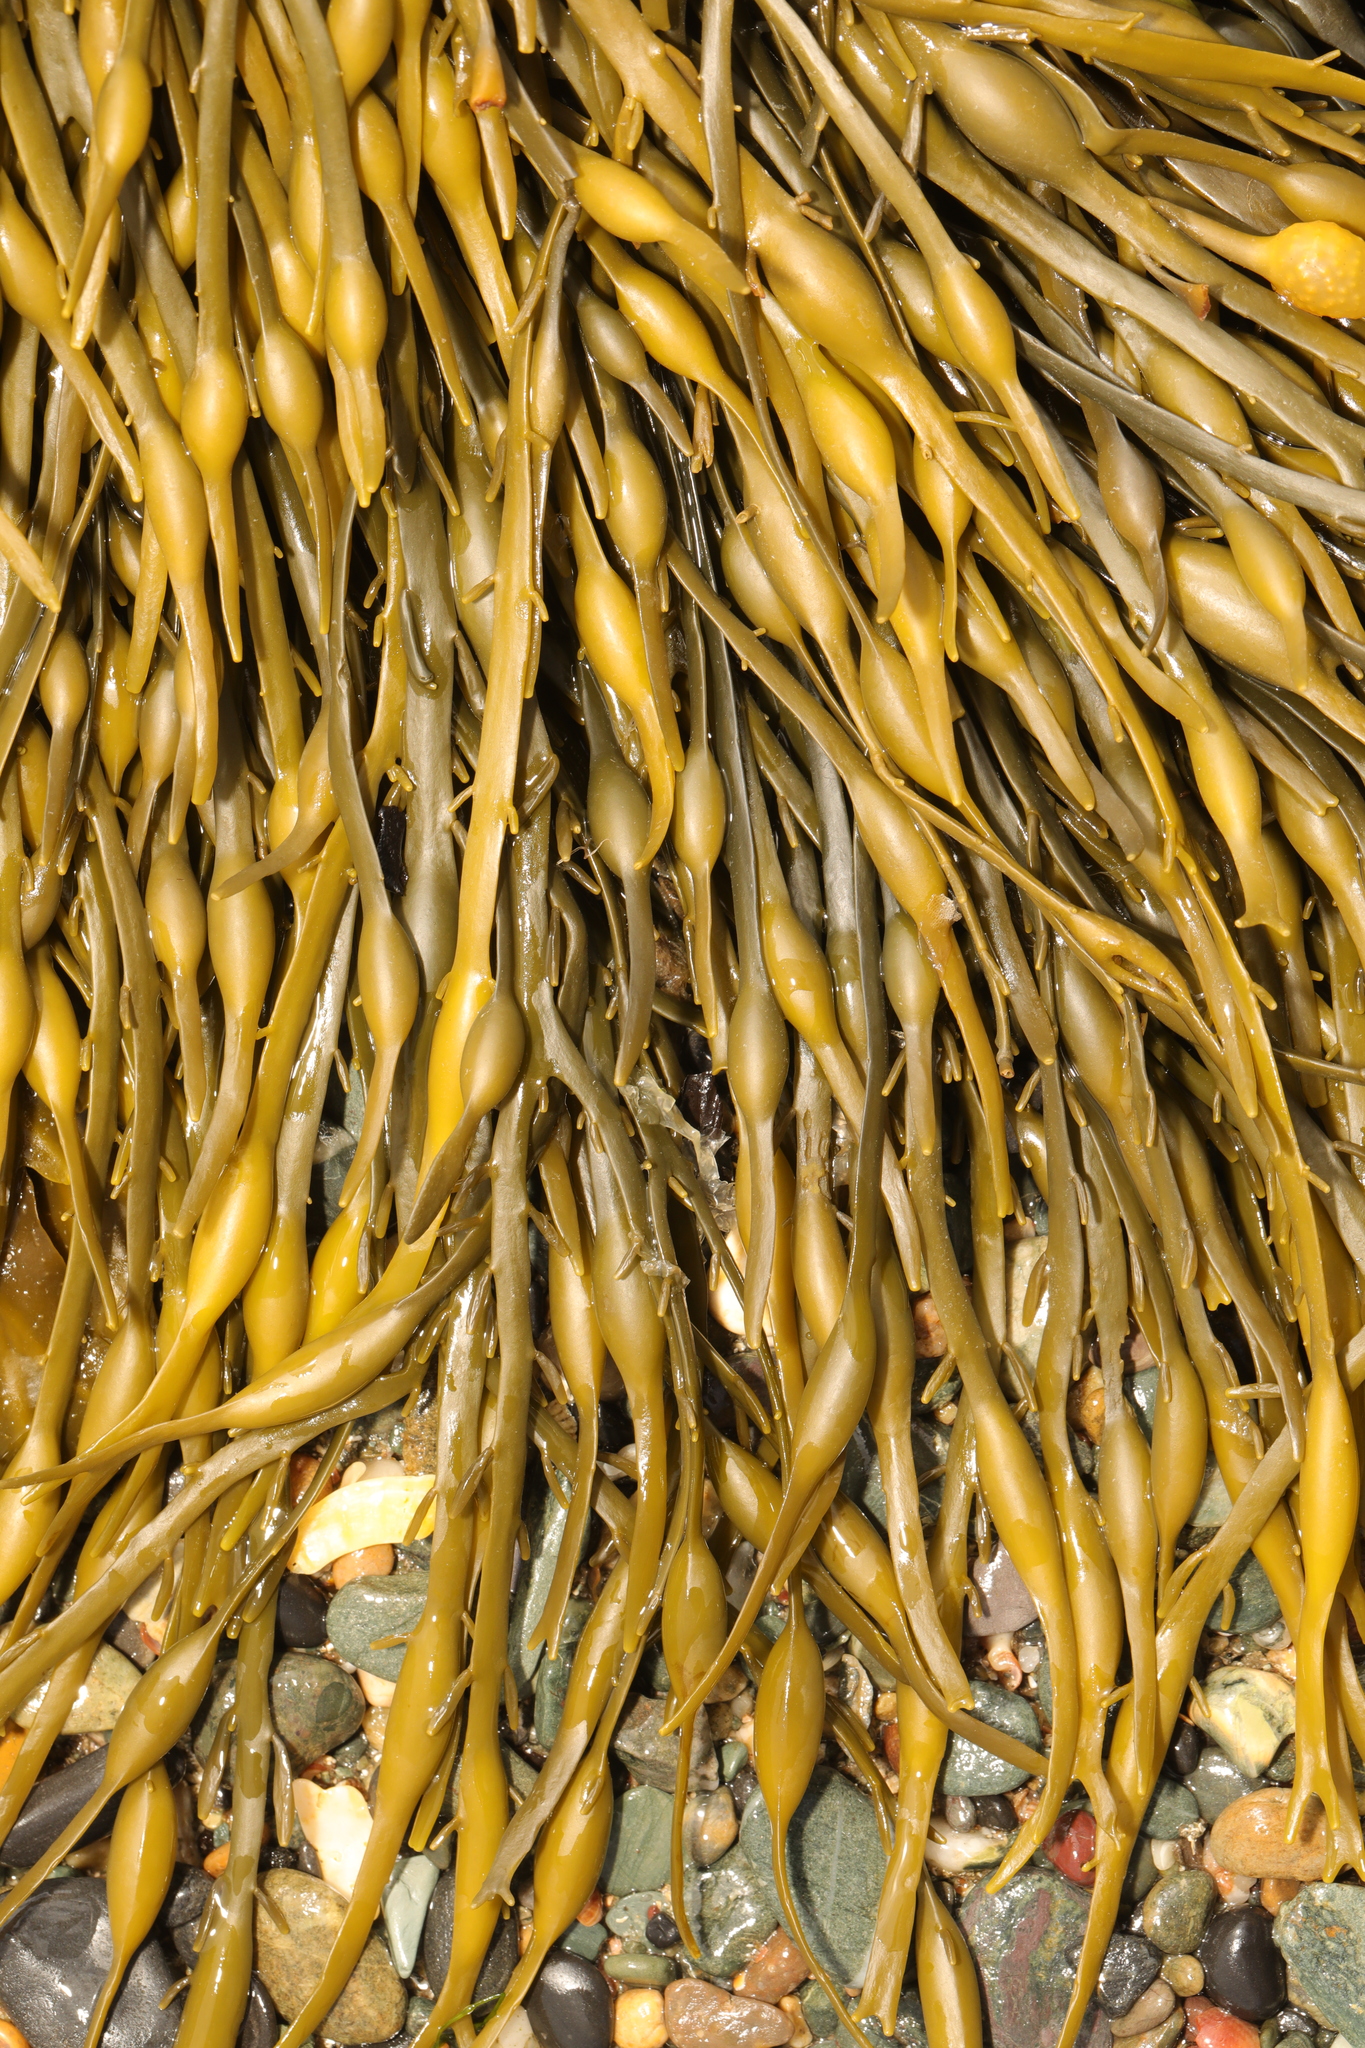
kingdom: Chromista
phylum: Ochrophyta
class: Phaeophyceae
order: Fucales
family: Fucaceae
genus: Ascophyllum
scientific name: Ascophyllum nodosum
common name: Knotted wrack
